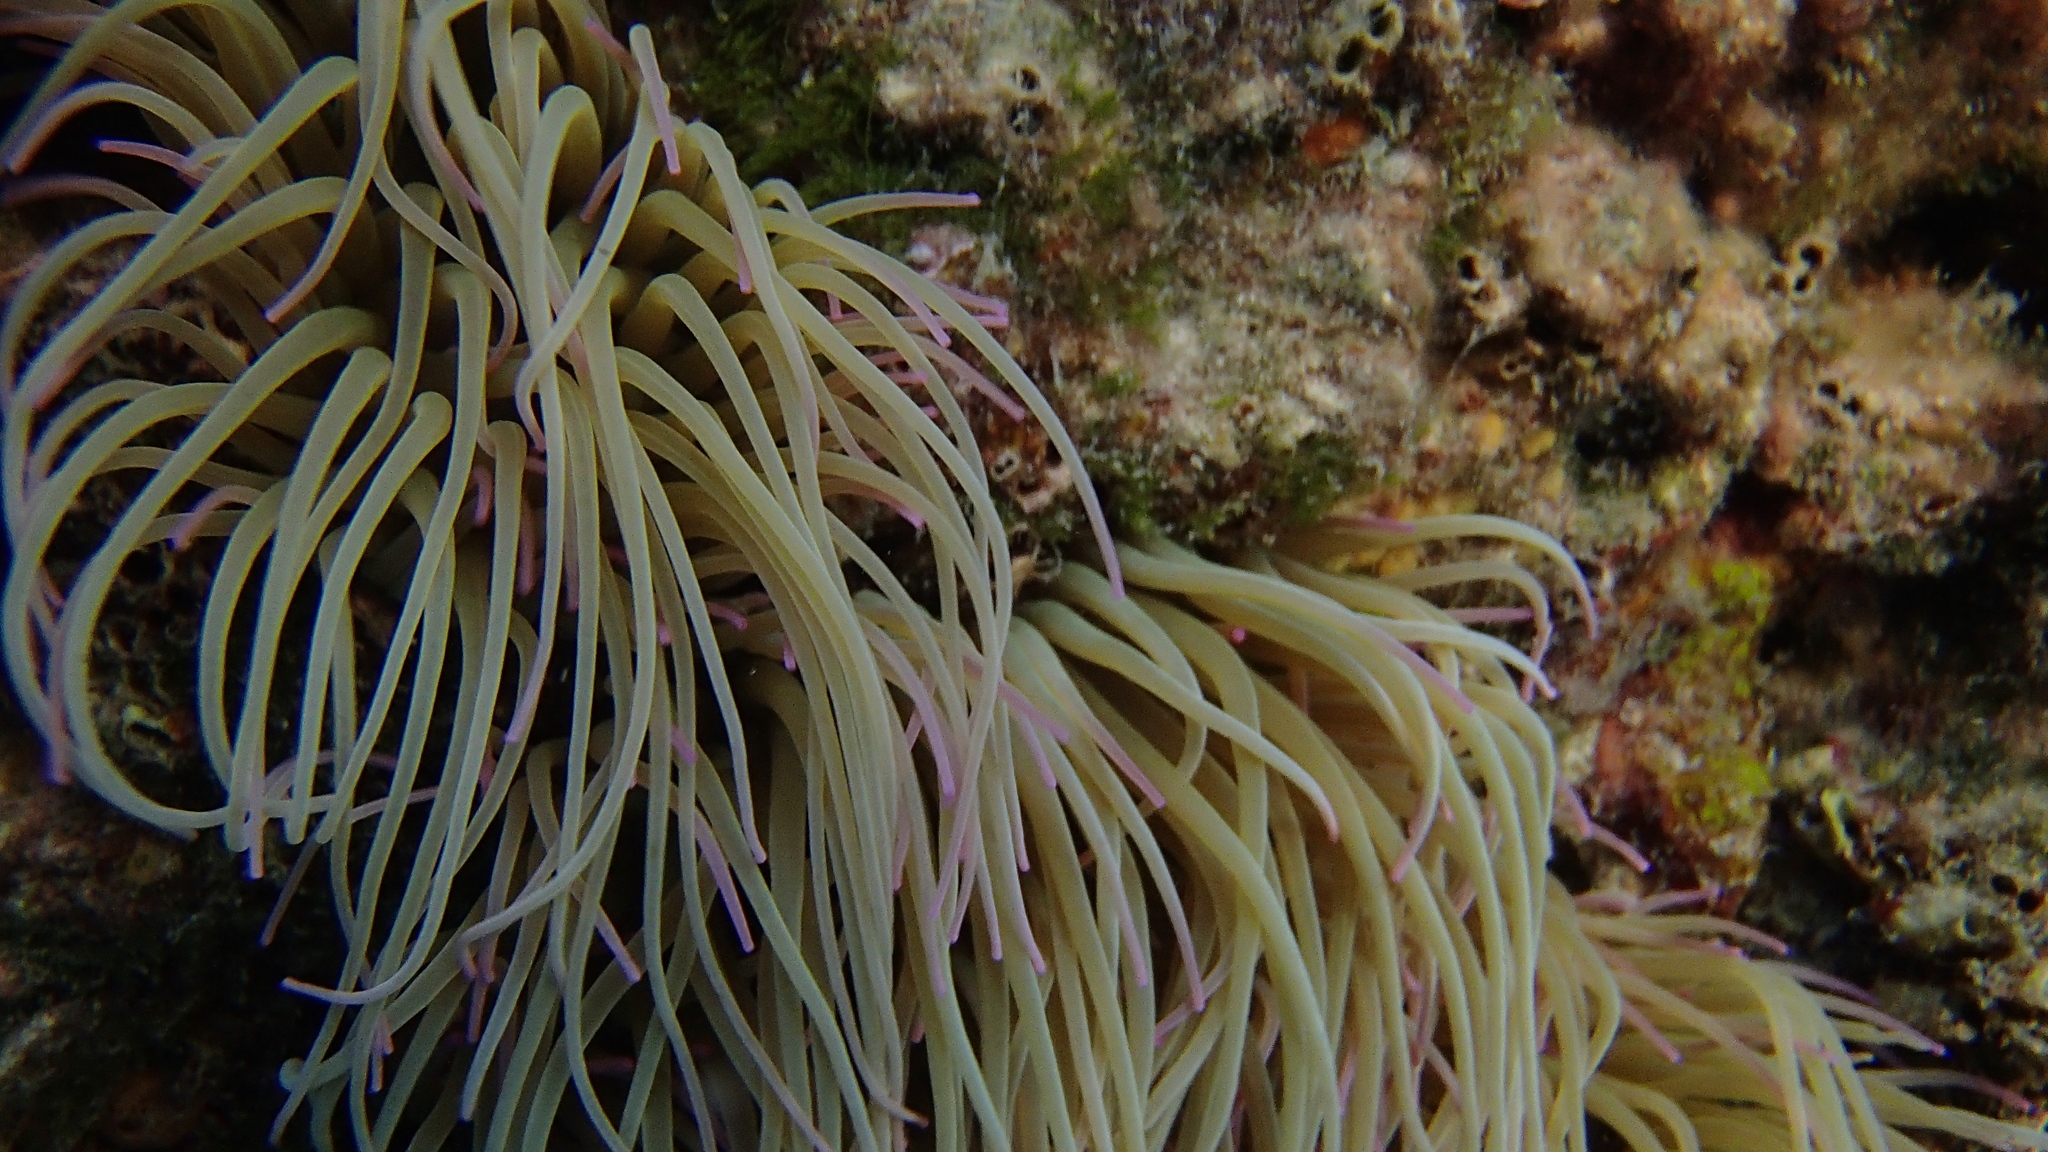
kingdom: Animalia
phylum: Cnidaria
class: Anthozoa
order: Actiniaria
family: Actiniidae
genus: Anemonia
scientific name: Anemonia viridis
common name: Snakelocks anemone
